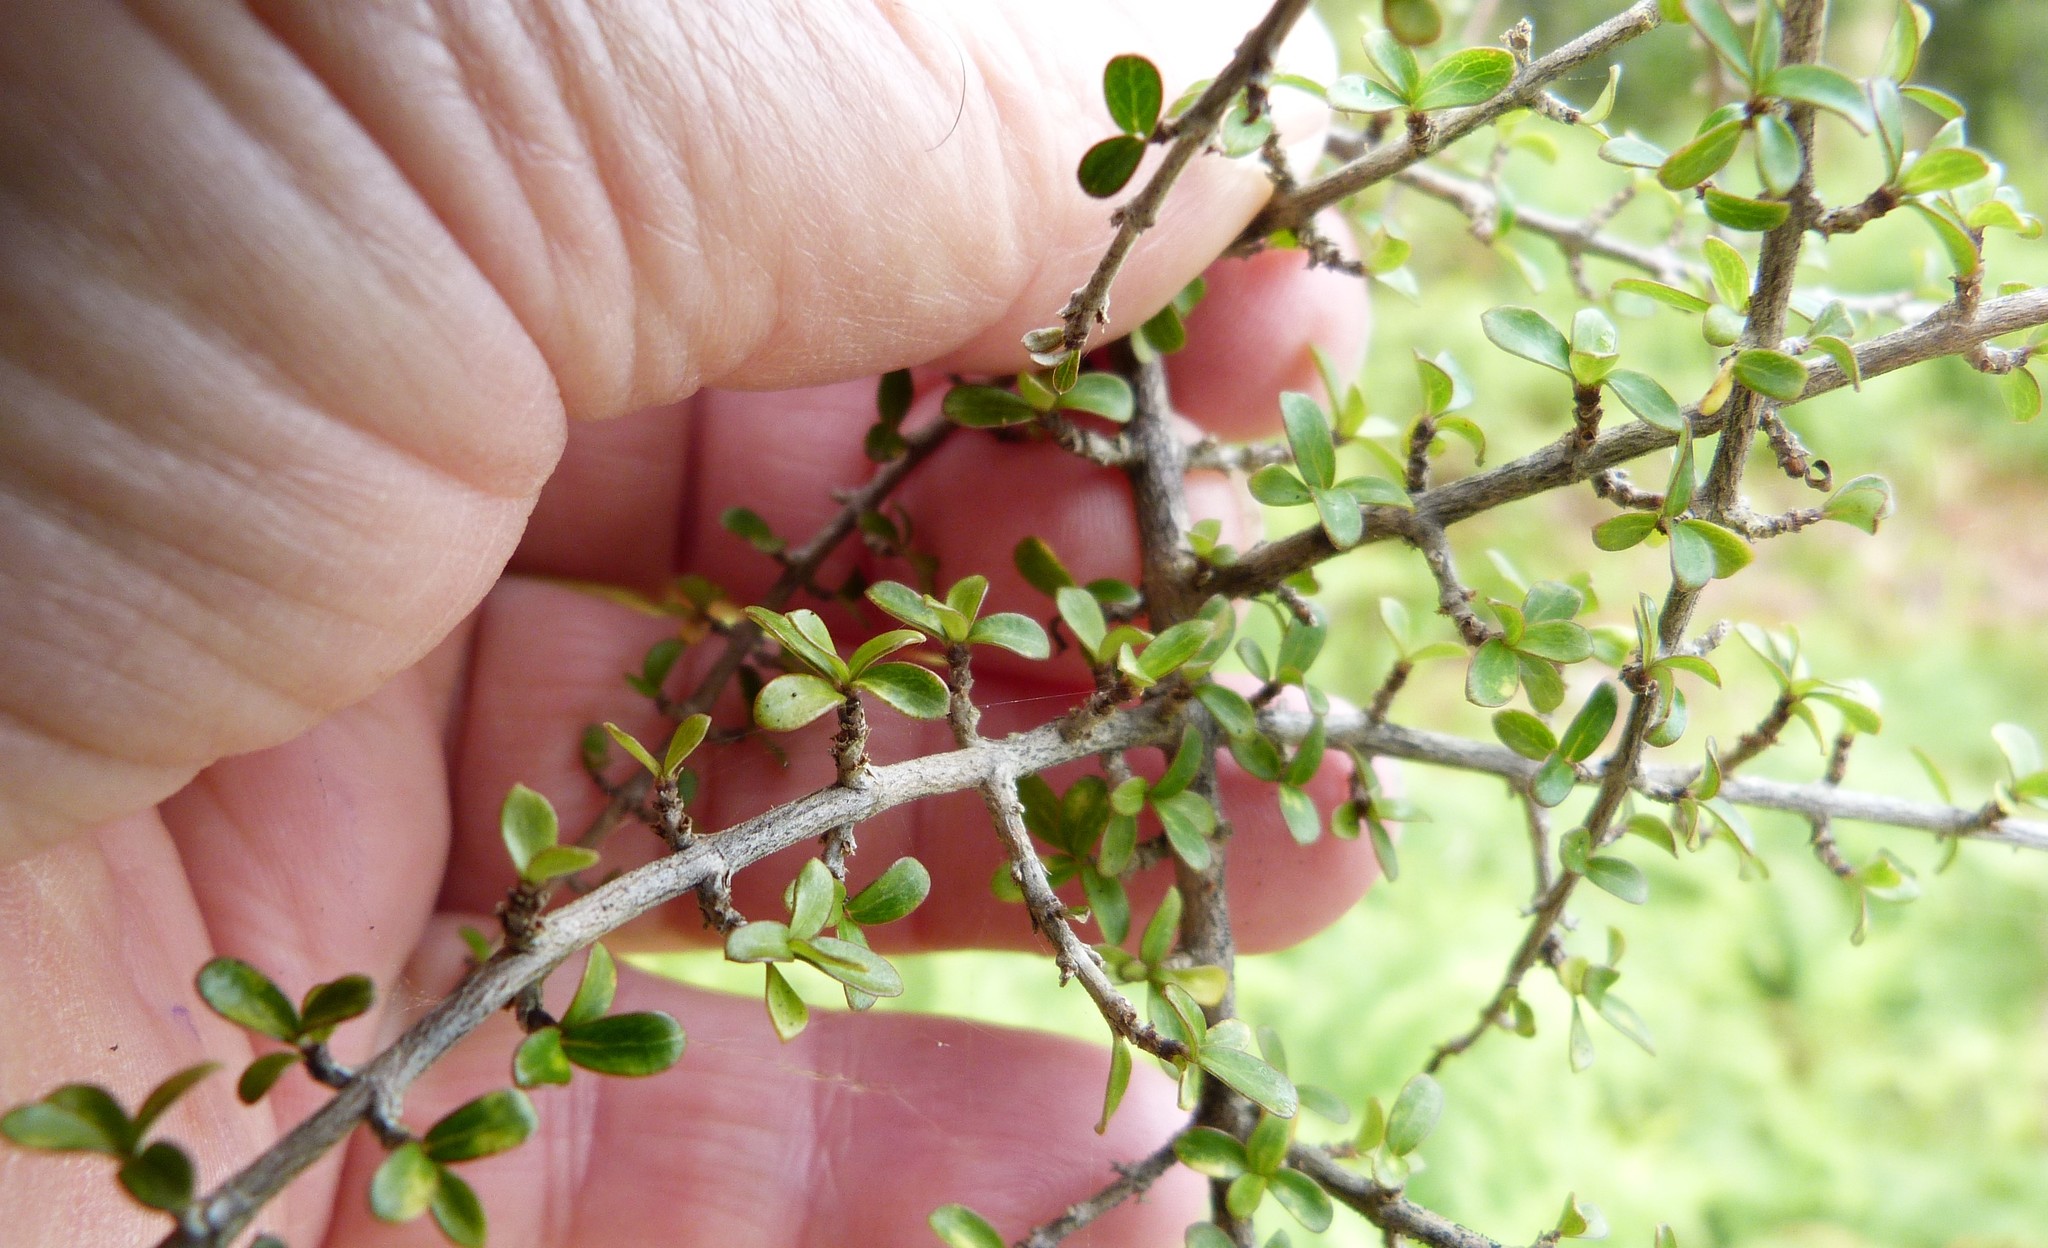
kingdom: Plantae
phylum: Tracheophyta
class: Magnoliopsida
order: Gentianales
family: Rubiaceae
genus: Coprosma
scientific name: Coprosma dumosa
